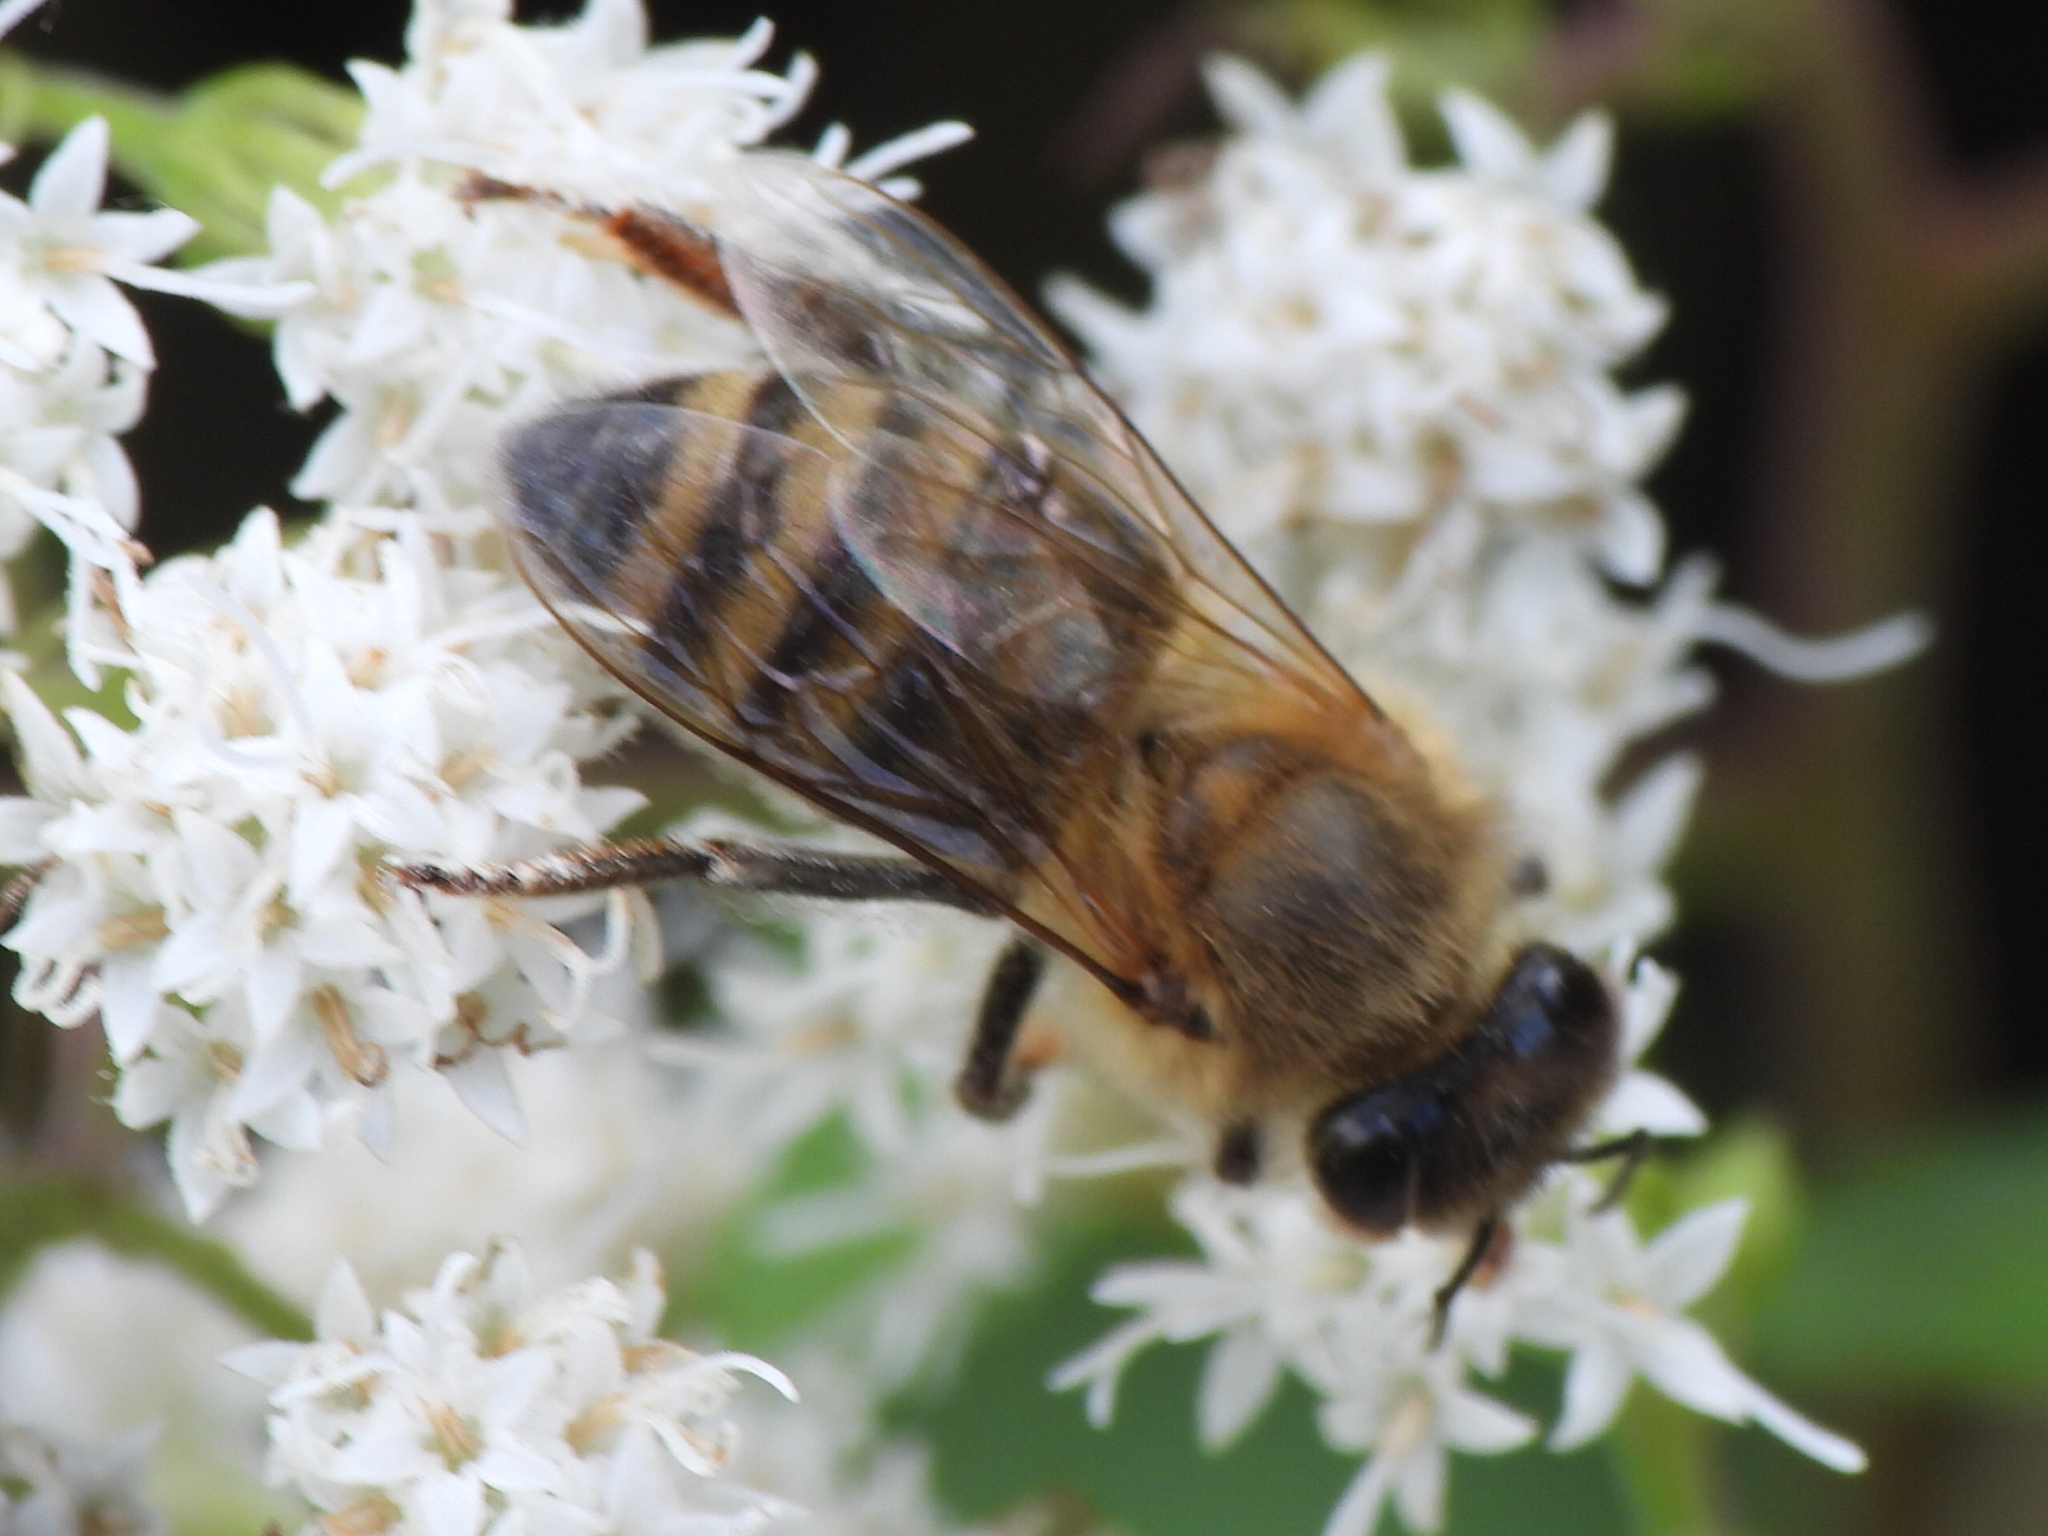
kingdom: Animalia
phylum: Arthropoda
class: Insecta
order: Hymenoptera
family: Apidae
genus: Apis
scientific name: Apis mellifera
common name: Honey bee
